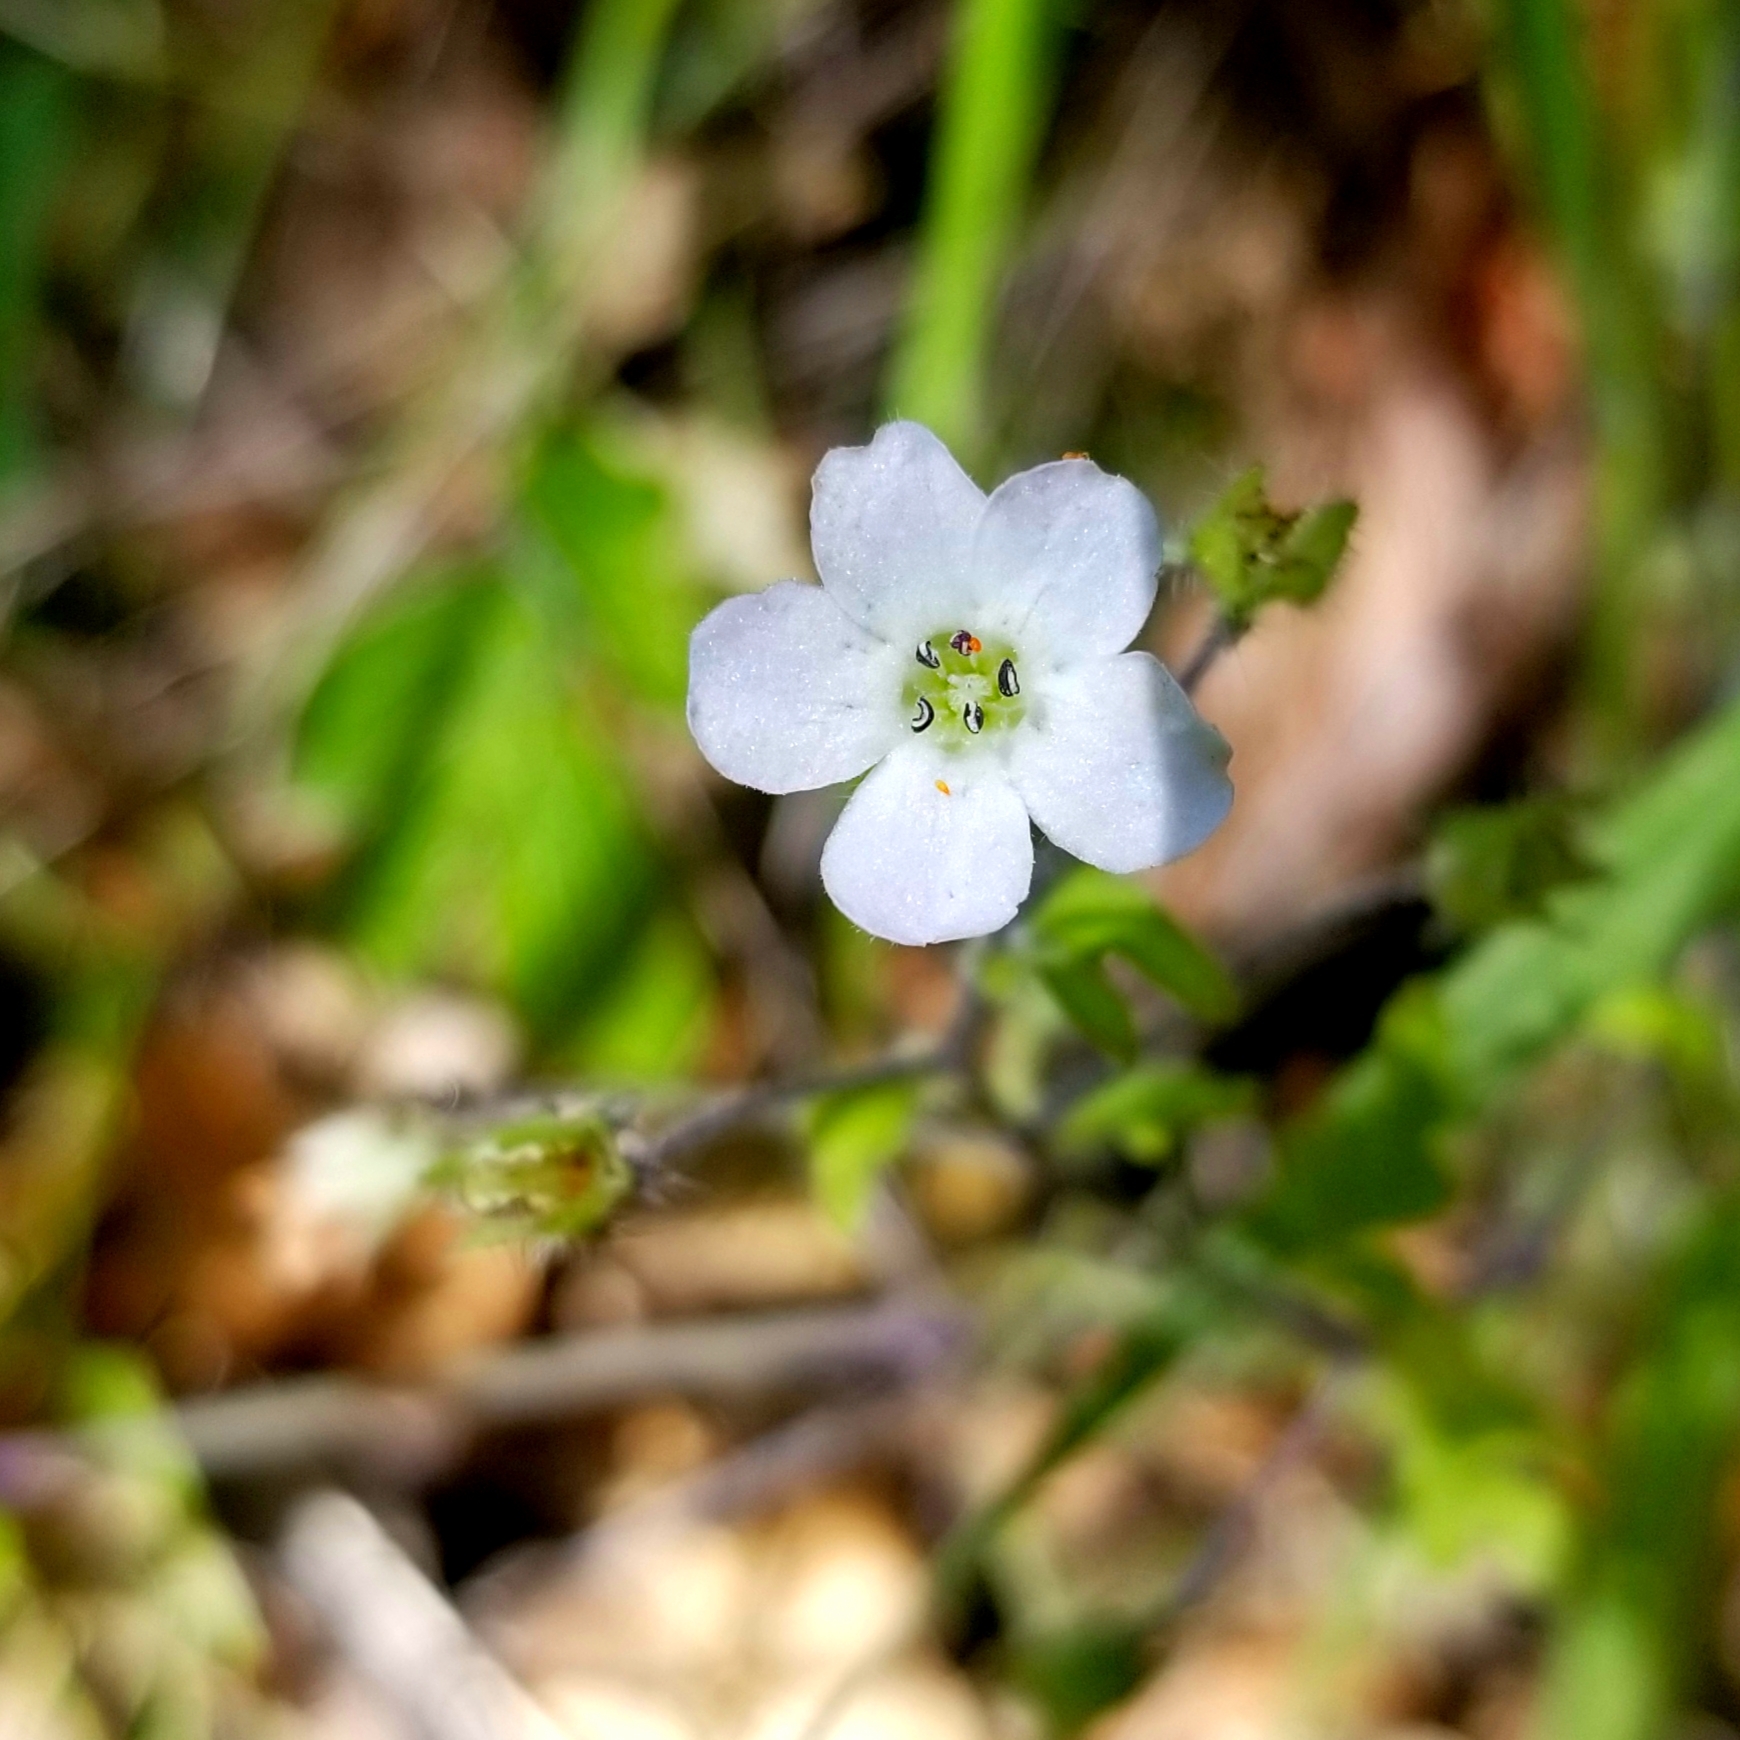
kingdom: Plantae
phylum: Tracheophyta
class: Magnoliopsida
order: Boraginales
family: Hydrophyllaceae
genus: Nemophila
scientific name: Nemophila heterophylla
